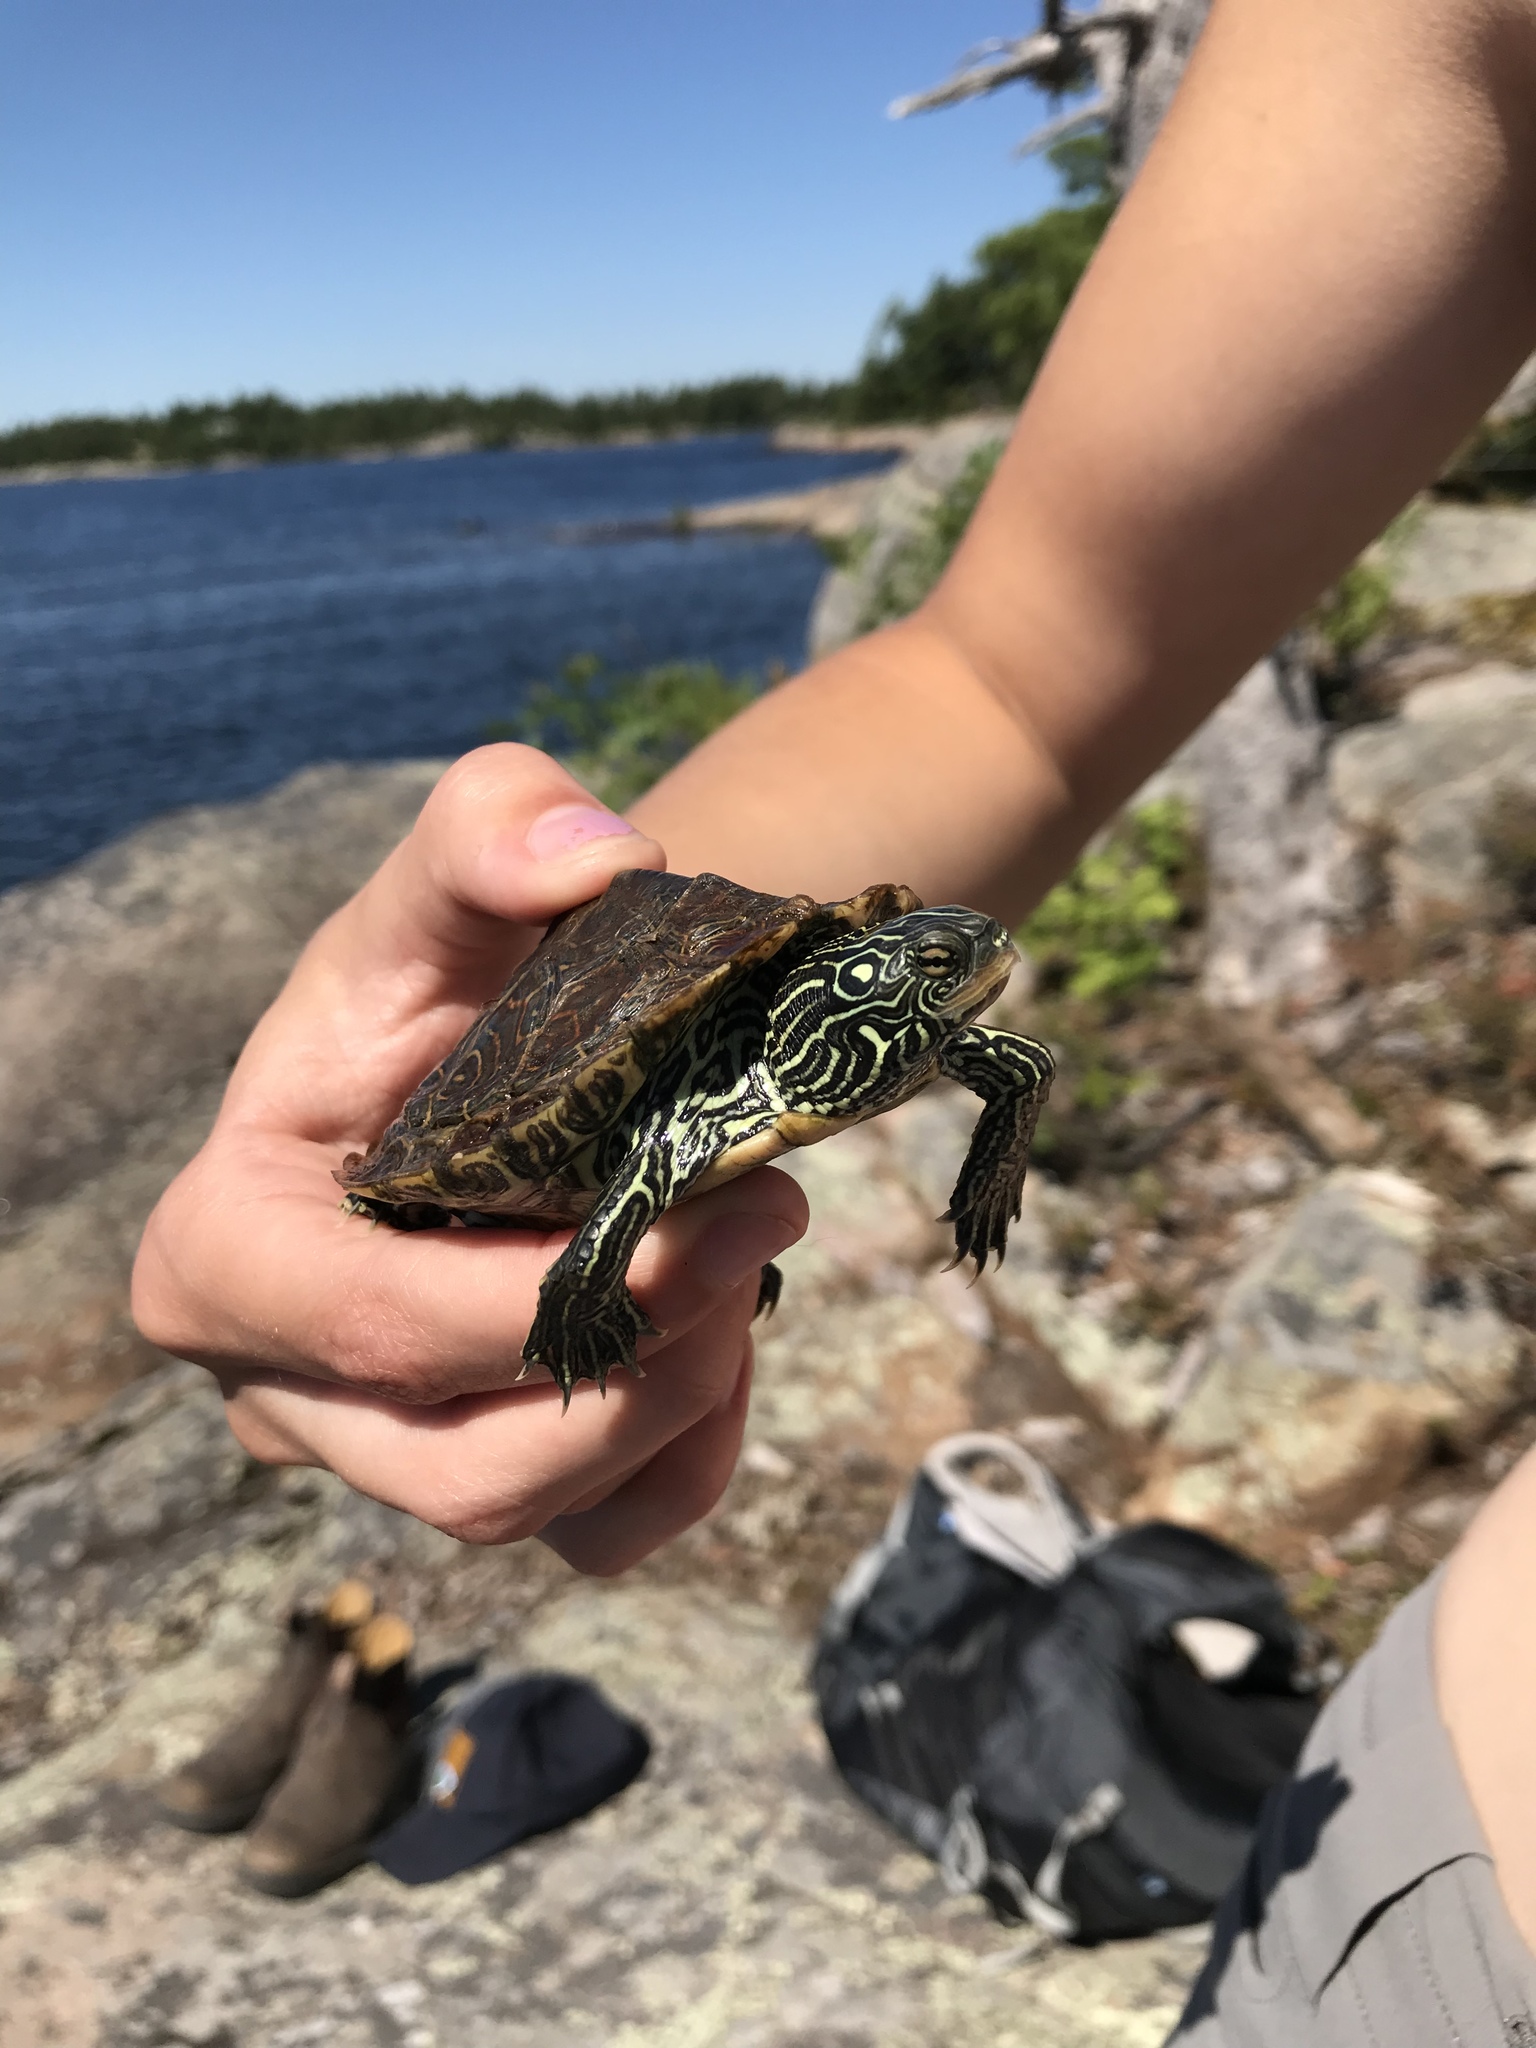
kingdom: Animalia
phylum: Chordata
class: Testudines
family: Emydidae
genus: Graptemys
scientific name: Graptemys geographica
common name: Common map turtle
